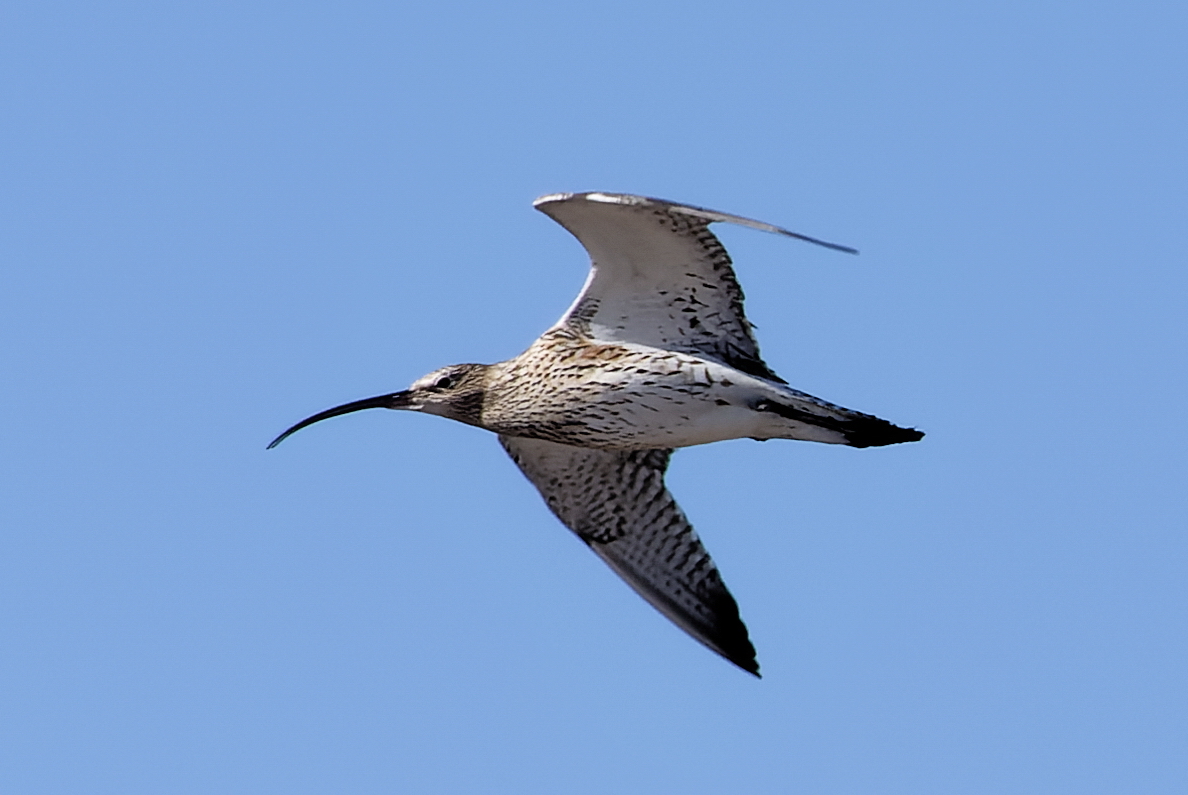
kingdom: Animalia
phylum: Chordata
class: Aves
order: Charadriiformes
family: Scolopacidae
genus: Numenius
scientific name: Numenius arquata
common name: Eurasian curlew
